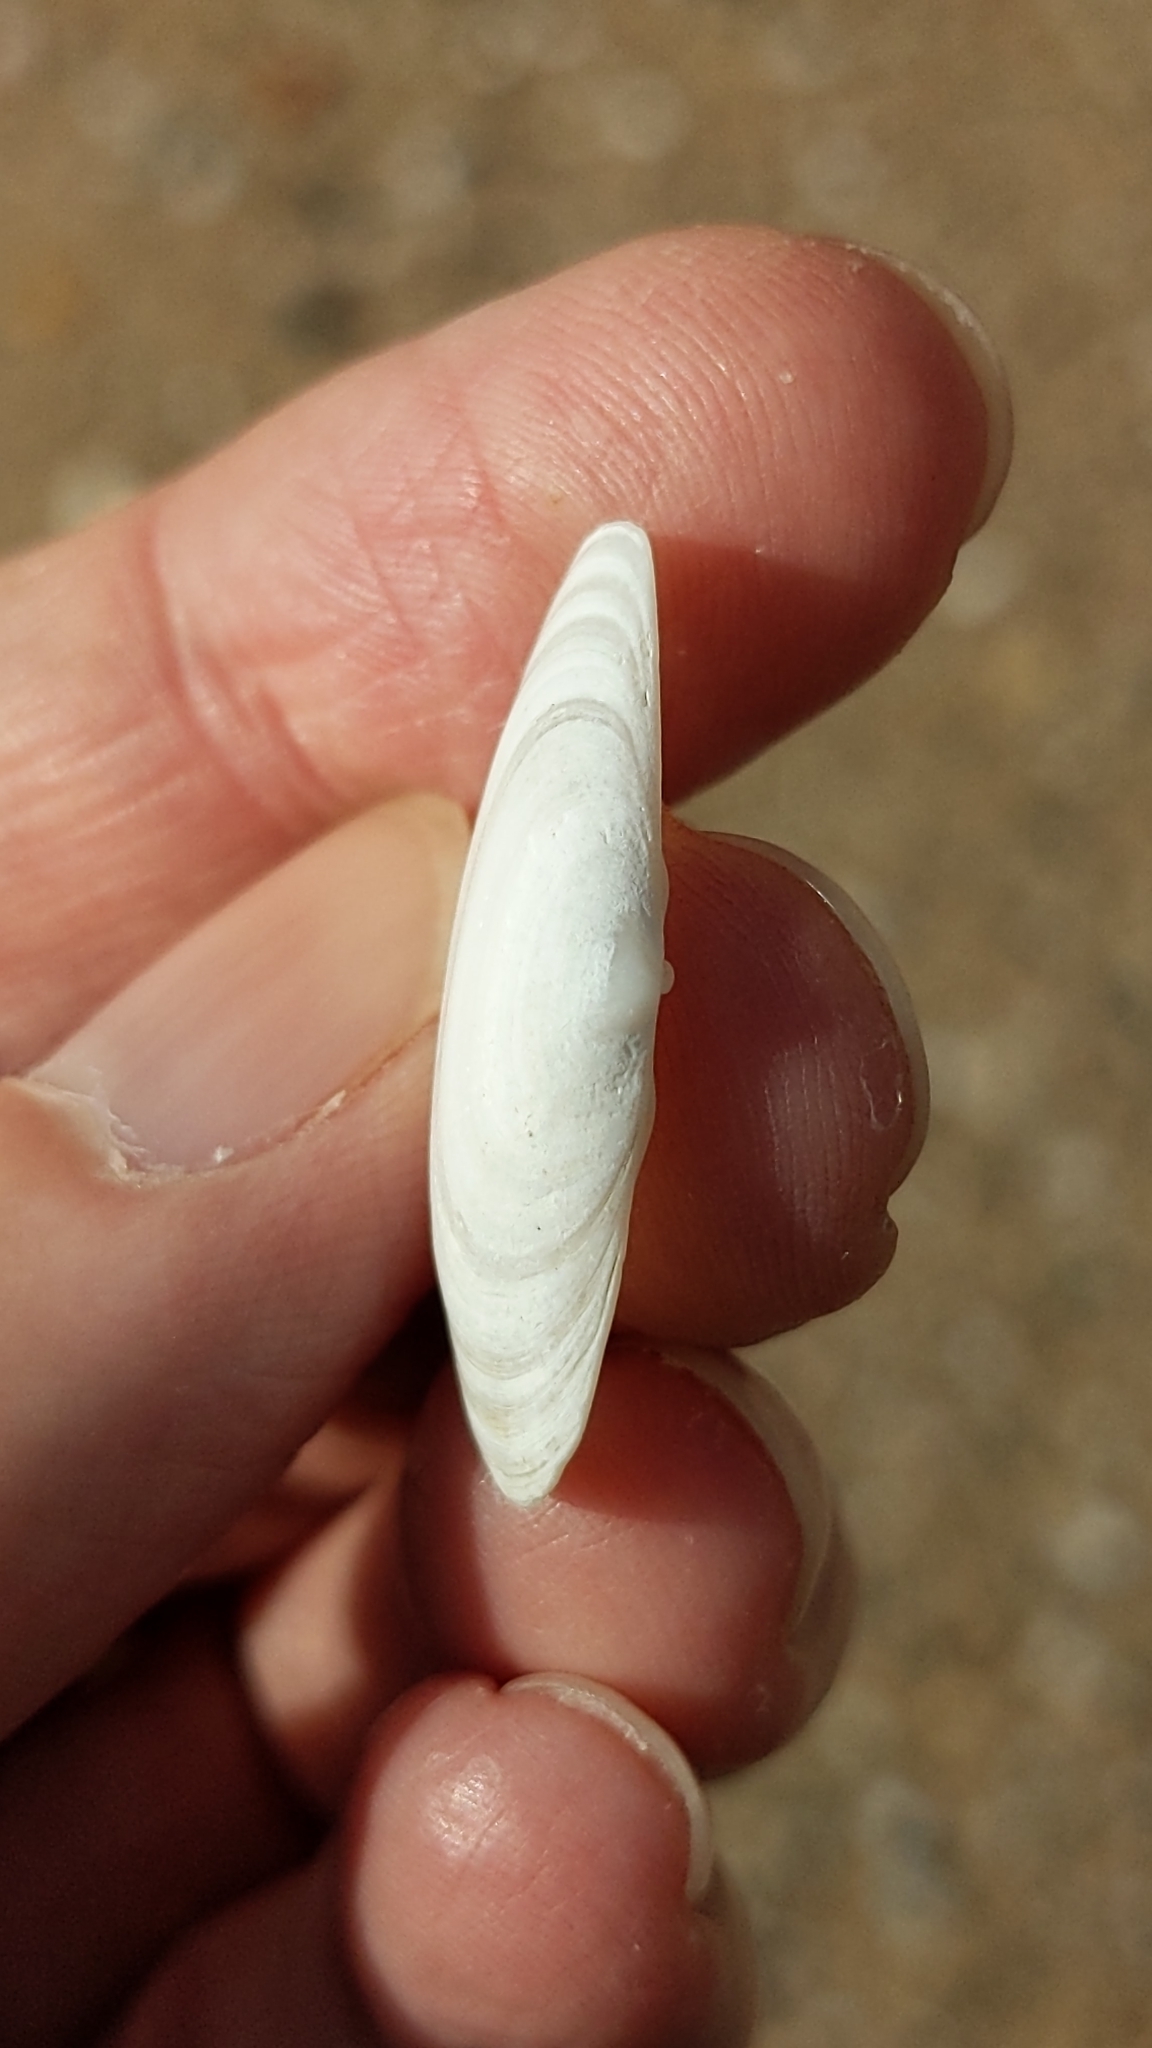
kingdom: Animalia
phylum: Mollusca
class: Bivalvia
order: Venerida
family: Mesodesmatidae
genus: Paphies
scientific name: Paphies australis
